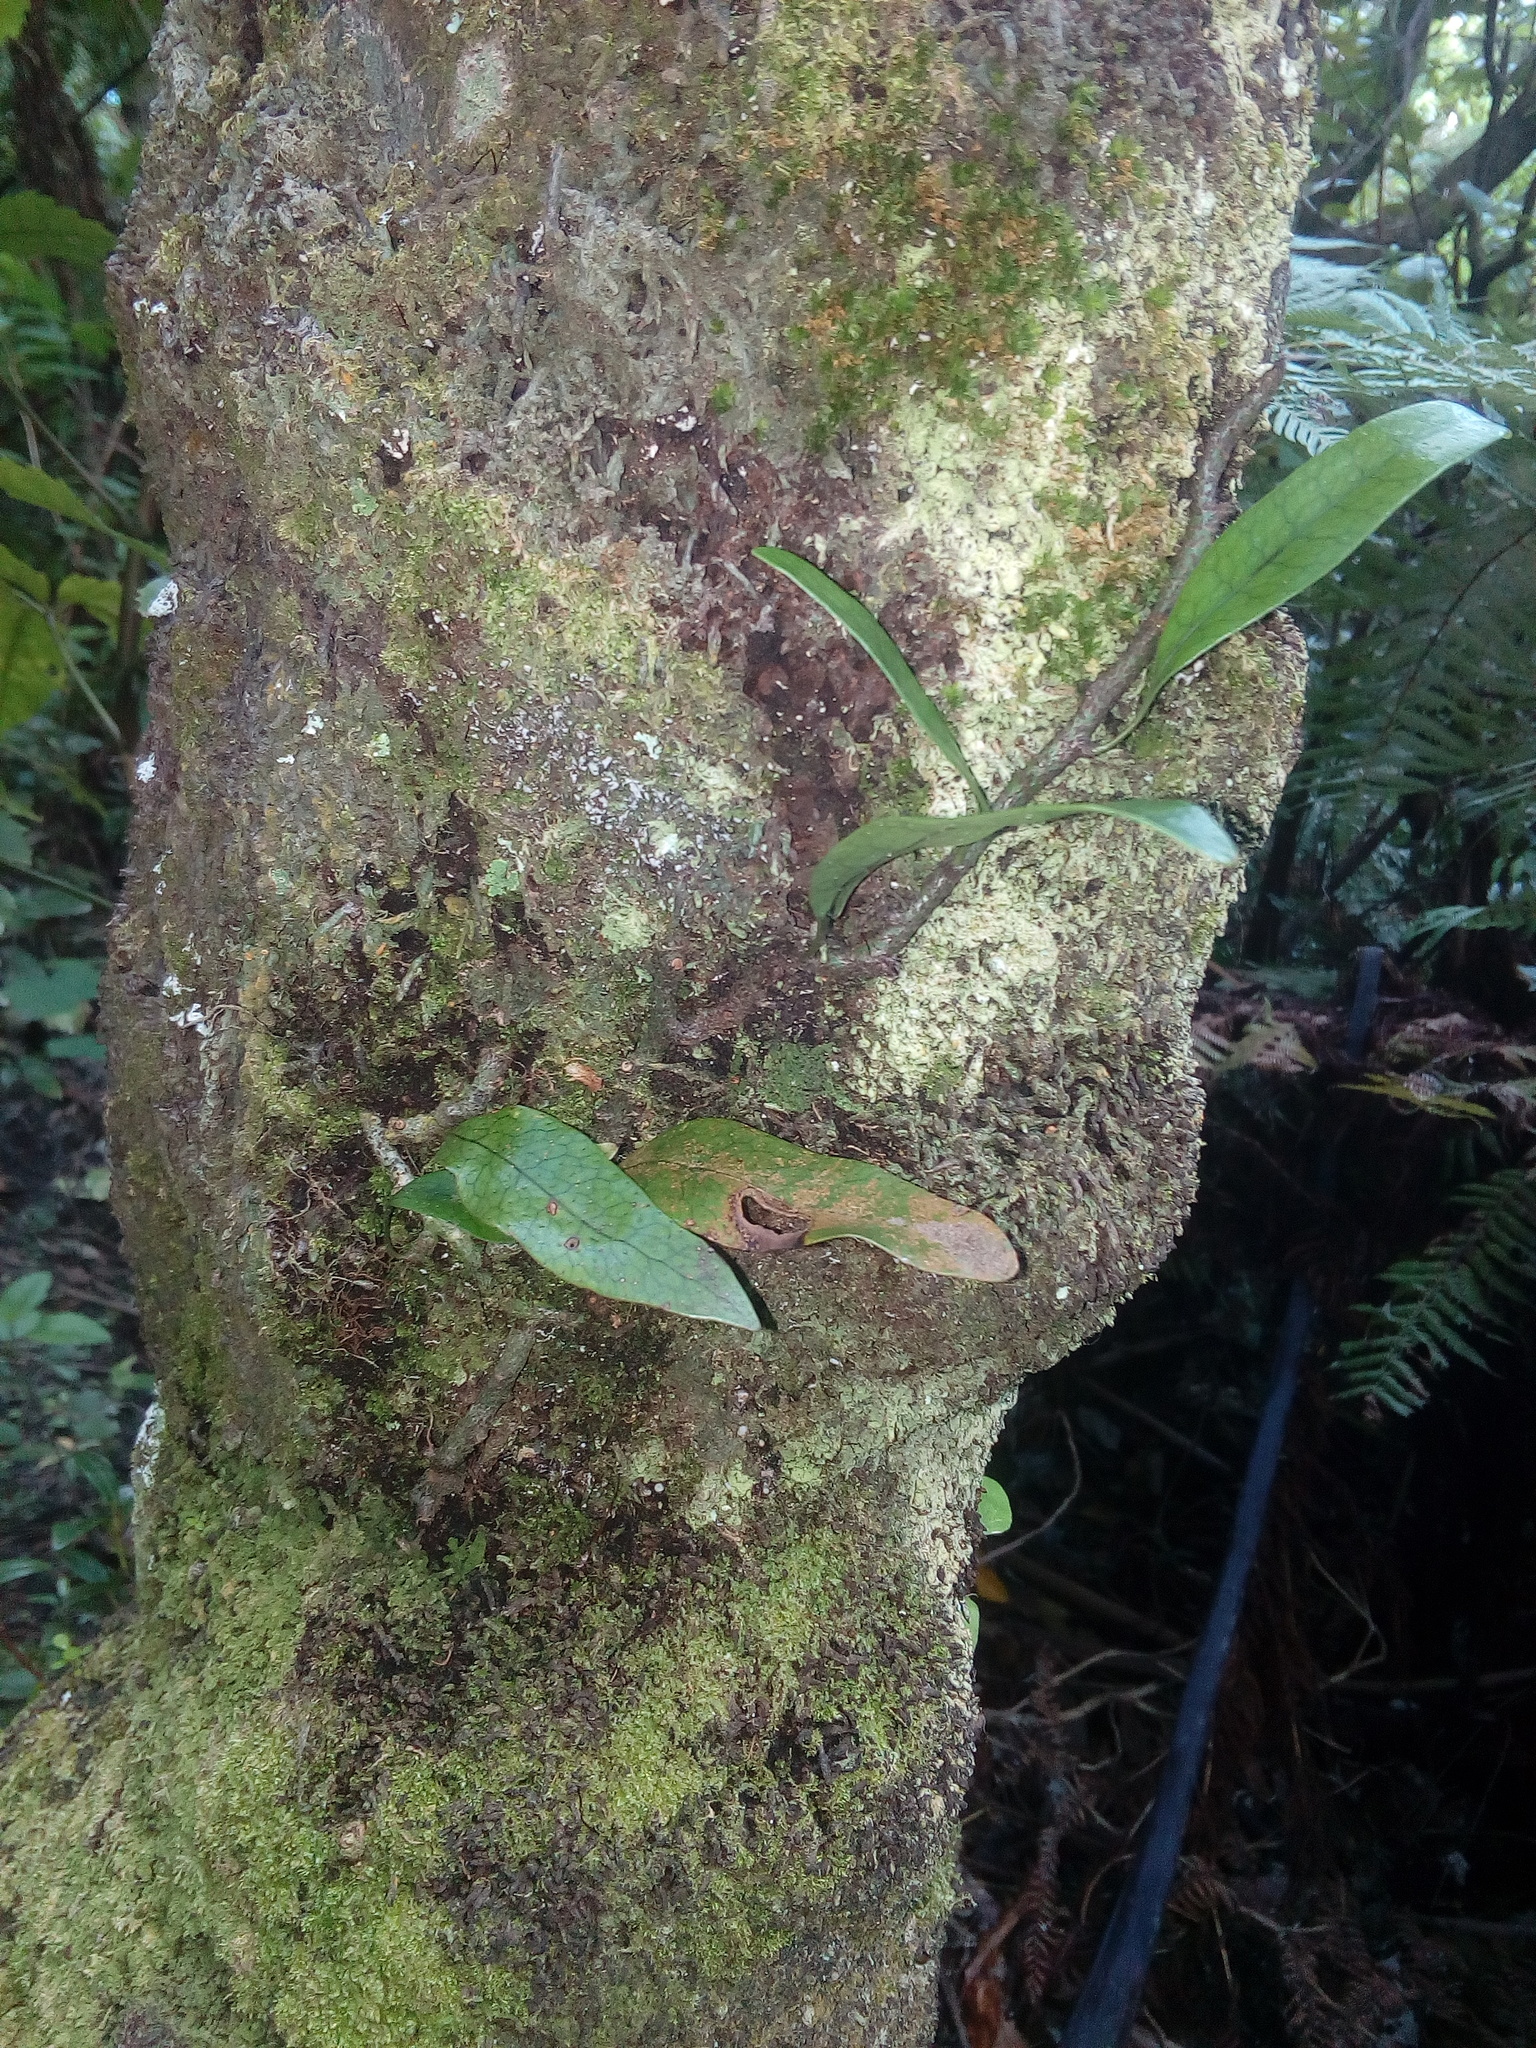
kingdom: Plantae
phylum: Tracheophyta
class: Polypodiopsida
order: Polypodiales
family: Polypodiaceae
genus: Lecanopteris
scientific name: Lecanopteris pustulata
